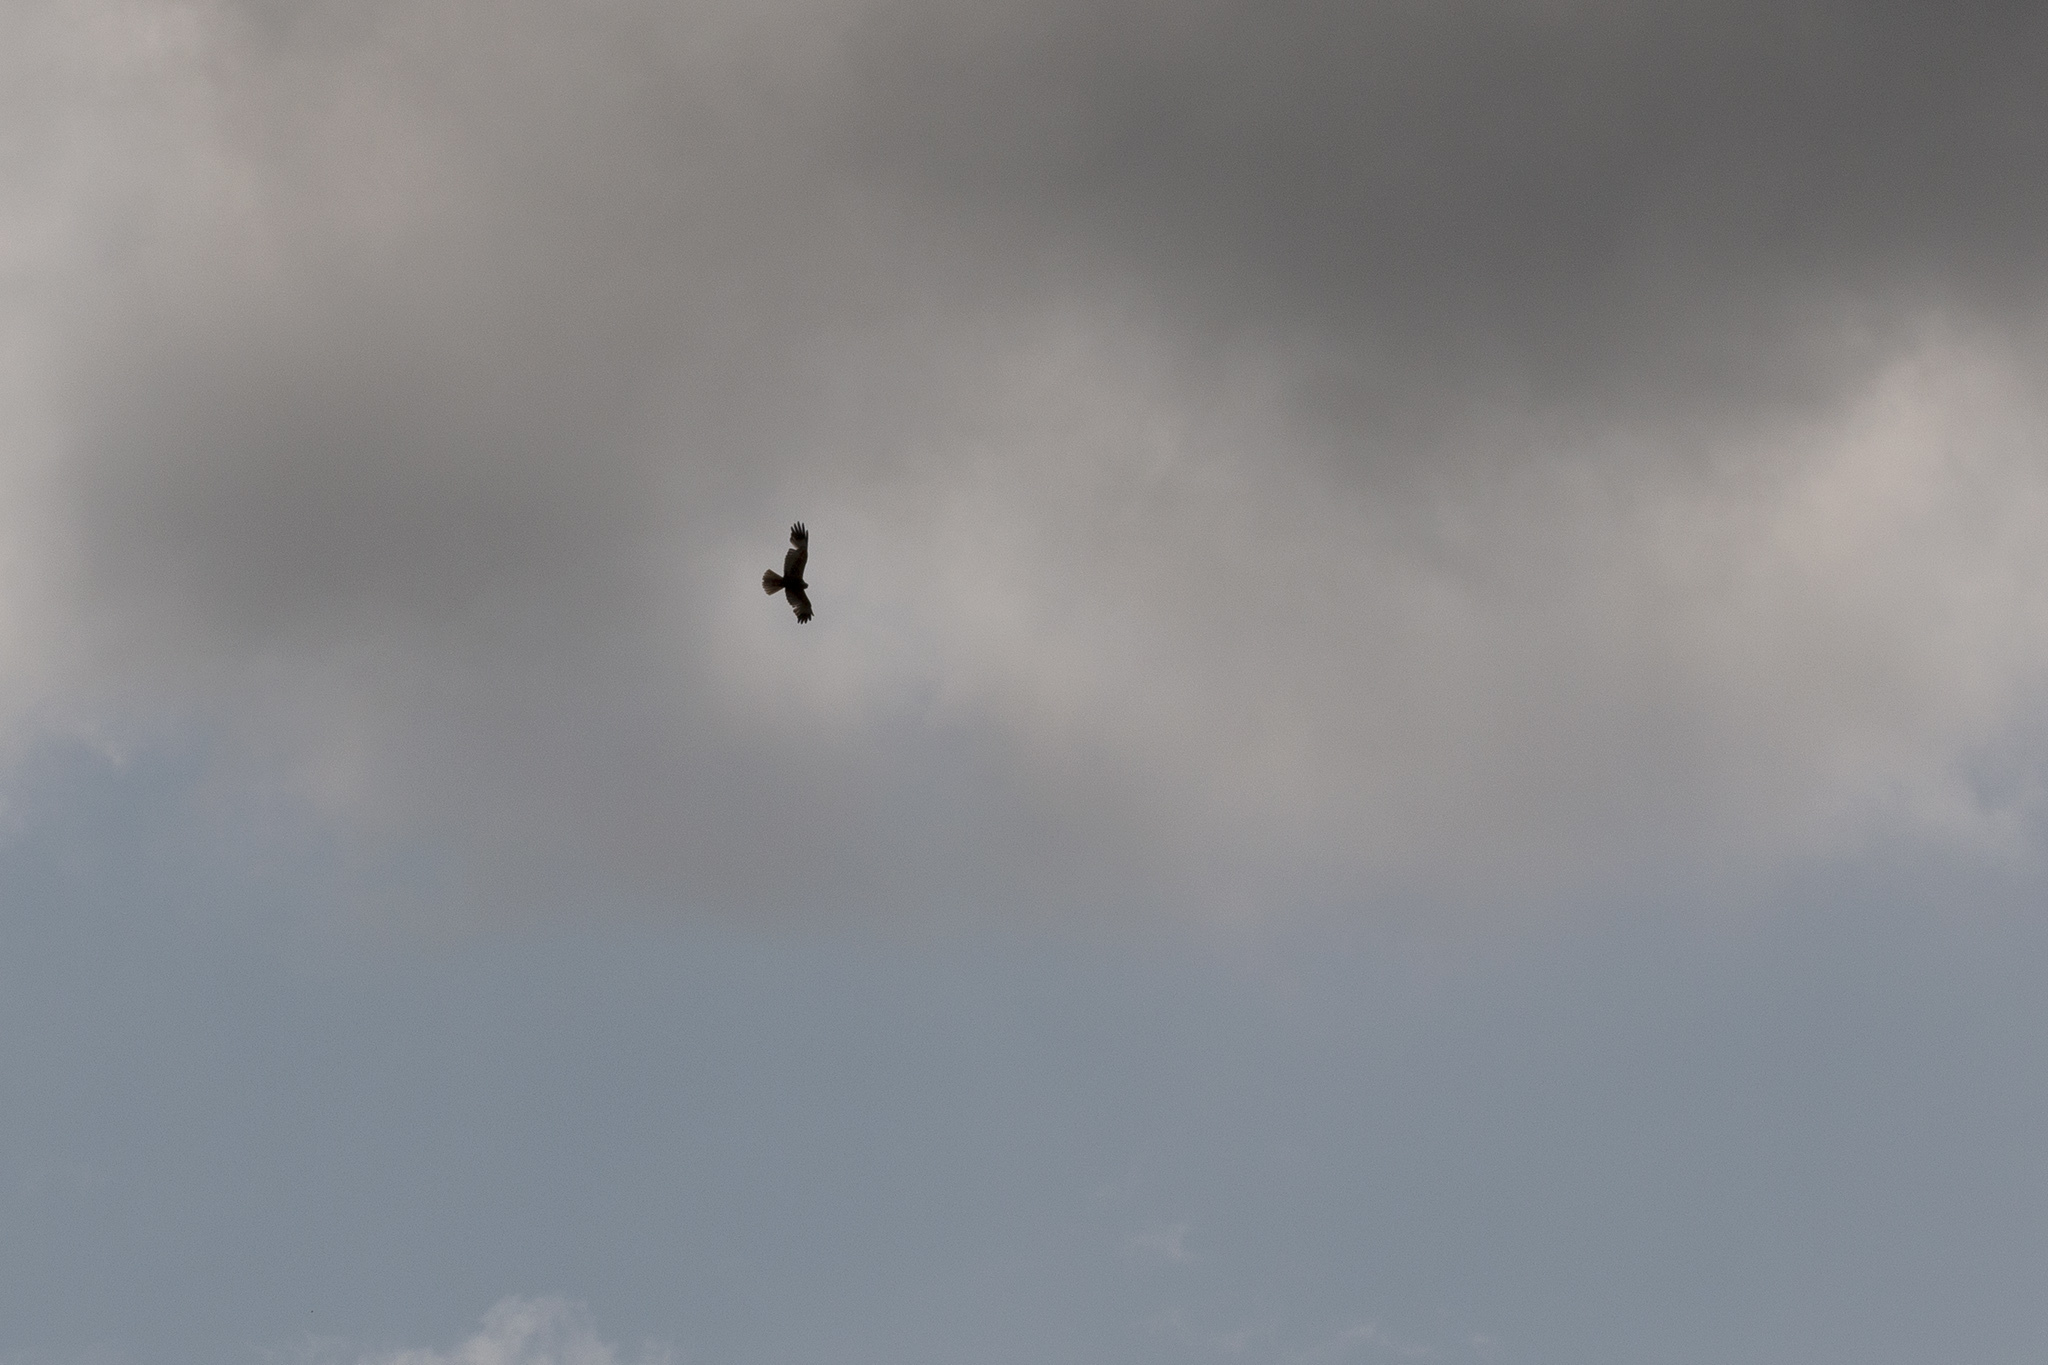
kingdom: Animalia
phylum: Chordata
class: Aves
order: Accipitriformes
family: Accipitridae
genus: Circus
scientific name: Circus aeruginosus
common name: Western marsh harrier
